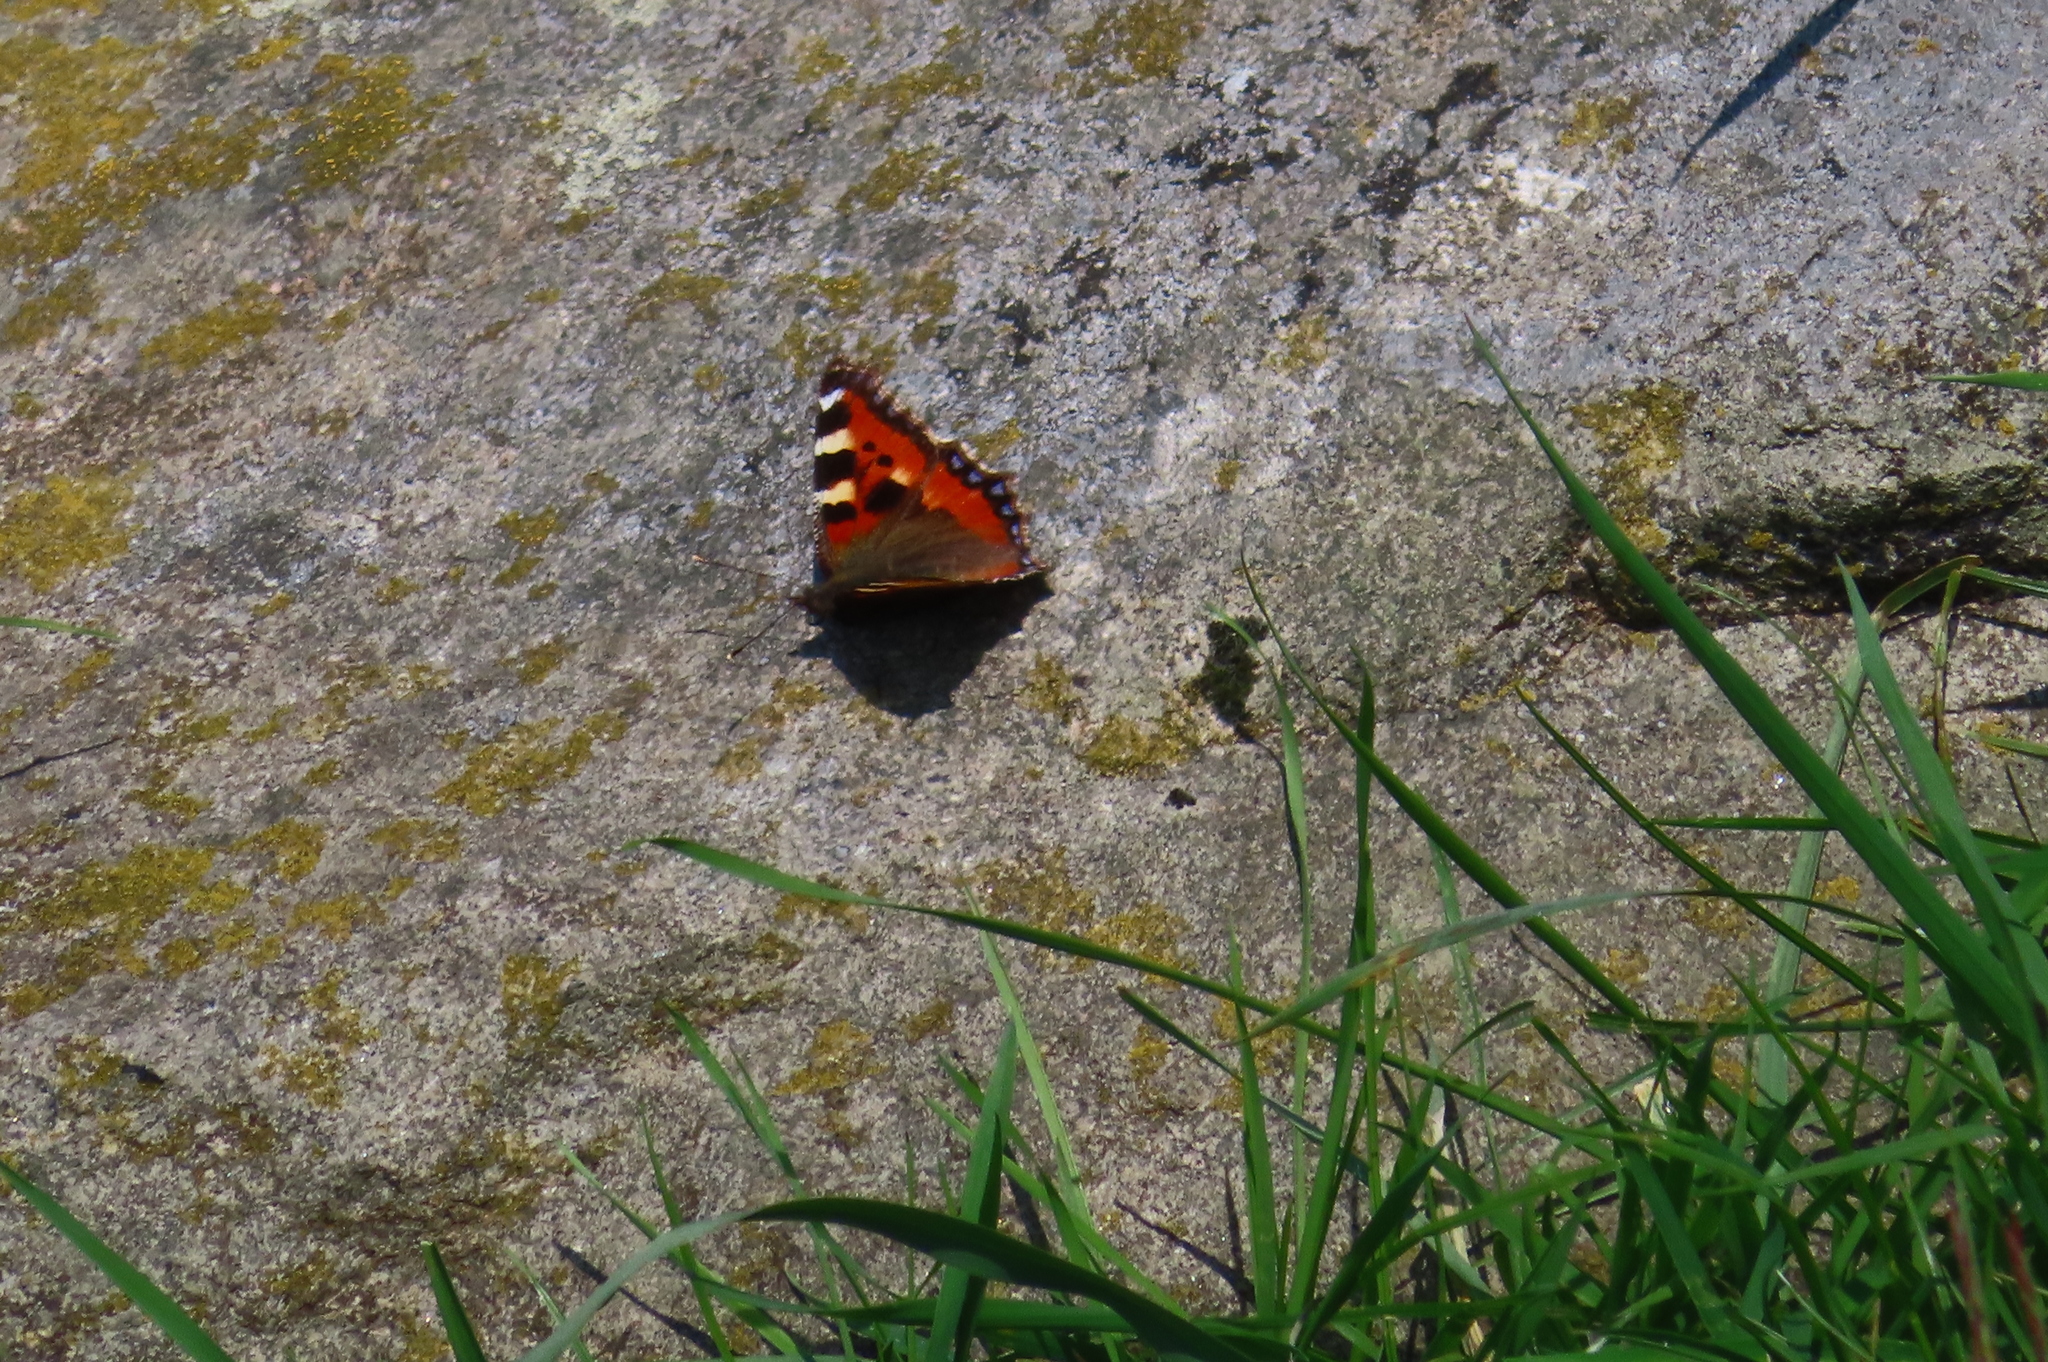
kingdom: Animalia
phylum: Arthropoda
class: Insecta
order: Lepidoptera
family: Nymphalidae
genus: Aglais
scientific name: Aglais urticae
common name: Small tortoiseshell
